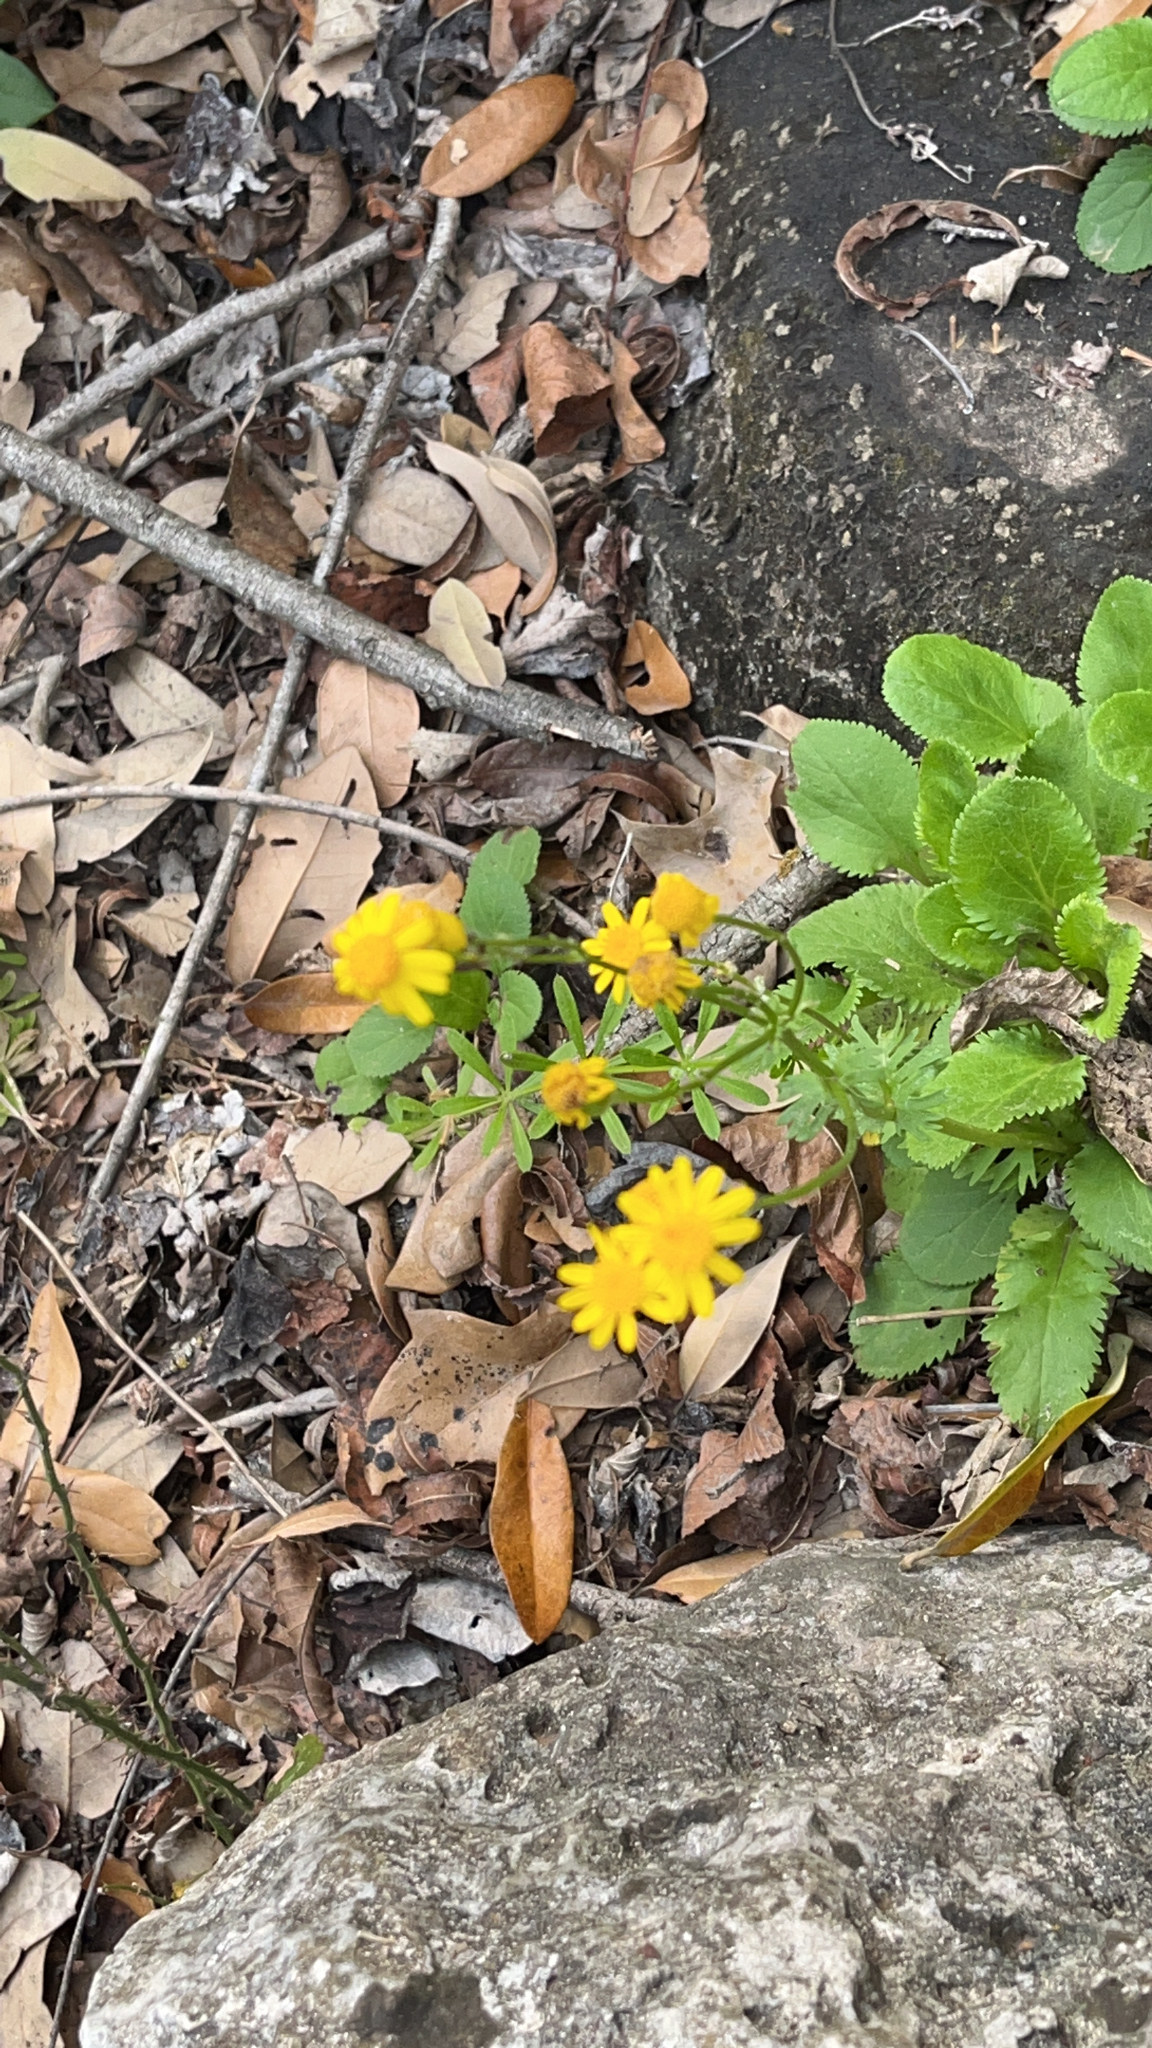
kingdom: Plantae
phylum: Tracheophyta
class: Magnoliopsida
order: Asterales
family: Asteraceae
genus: Packera
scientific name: Packera obovata
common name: Round-leaf ragwort
